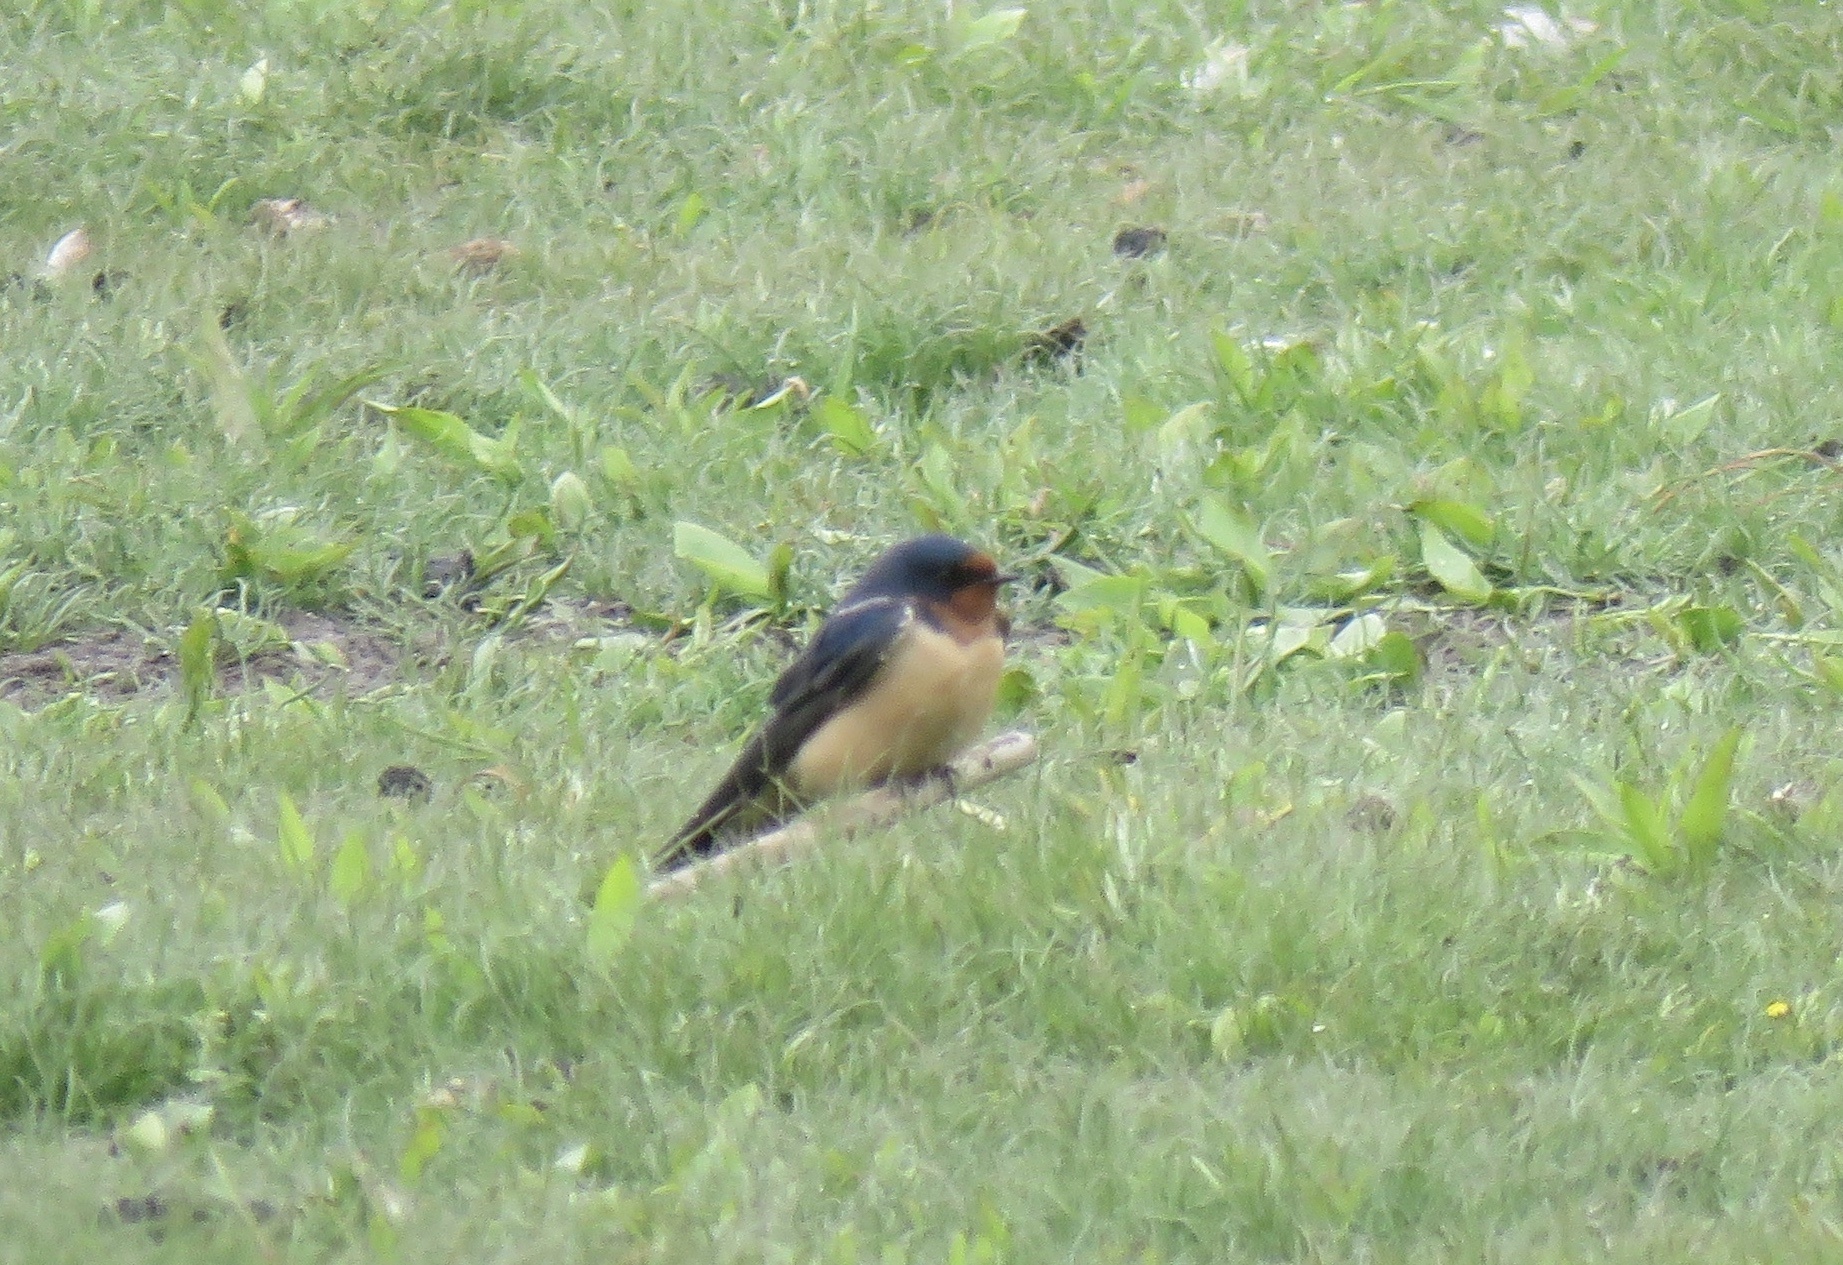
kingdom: Animalia
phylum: Chordata
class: Aves
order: Passeriformes
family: Hirundinidae
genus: Hirundo
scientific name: Hirundo rustica
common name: Barn swallow
